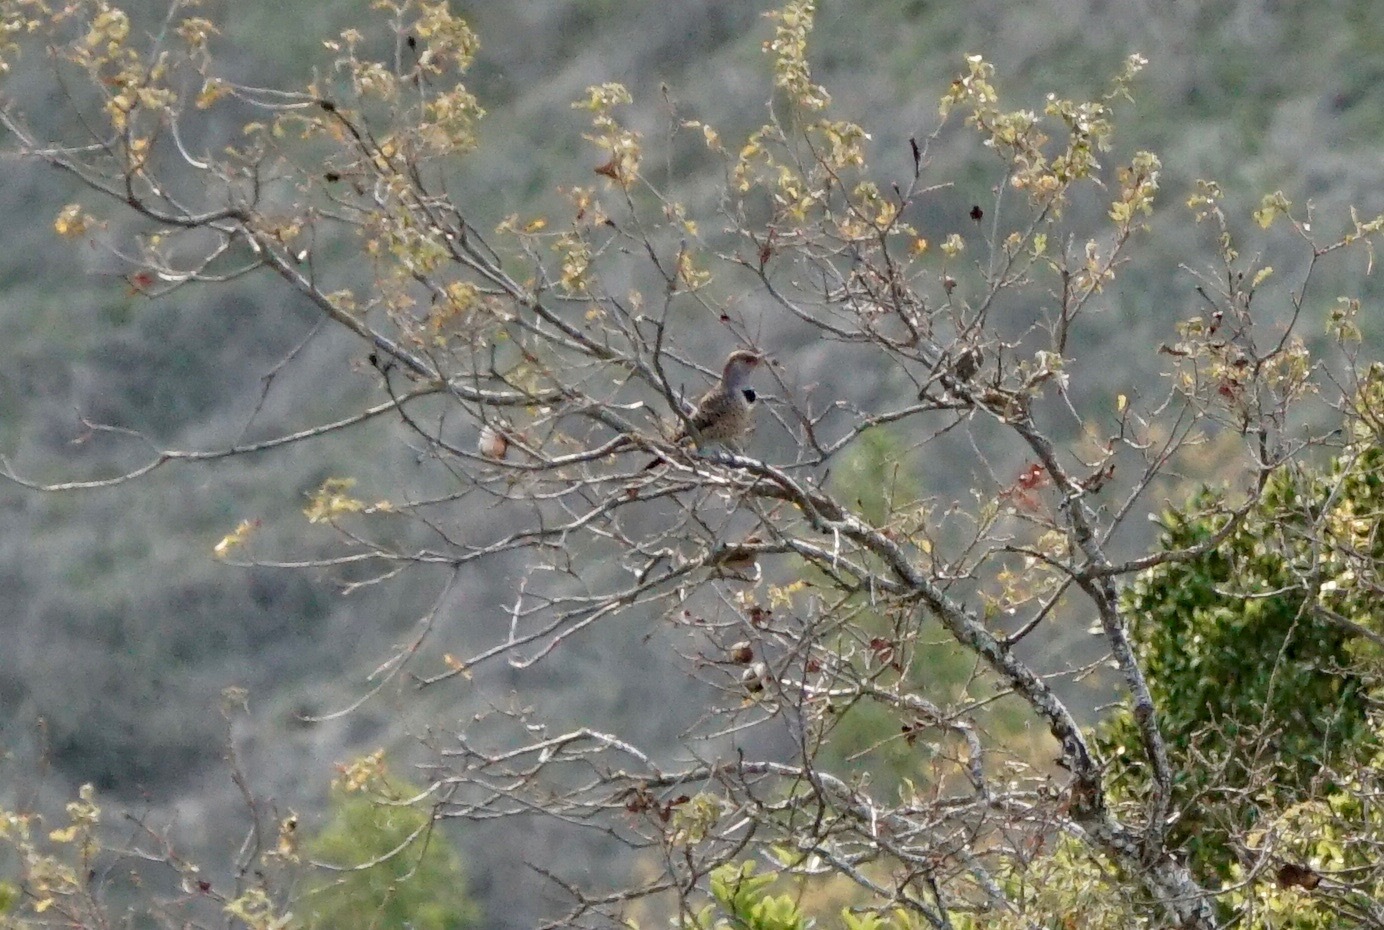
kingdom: Animalia
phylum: Chordata
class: Aves
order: Piciformes
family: Picidae
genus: Colaptes
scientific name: Colaptes auratus
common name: Northern flicker
